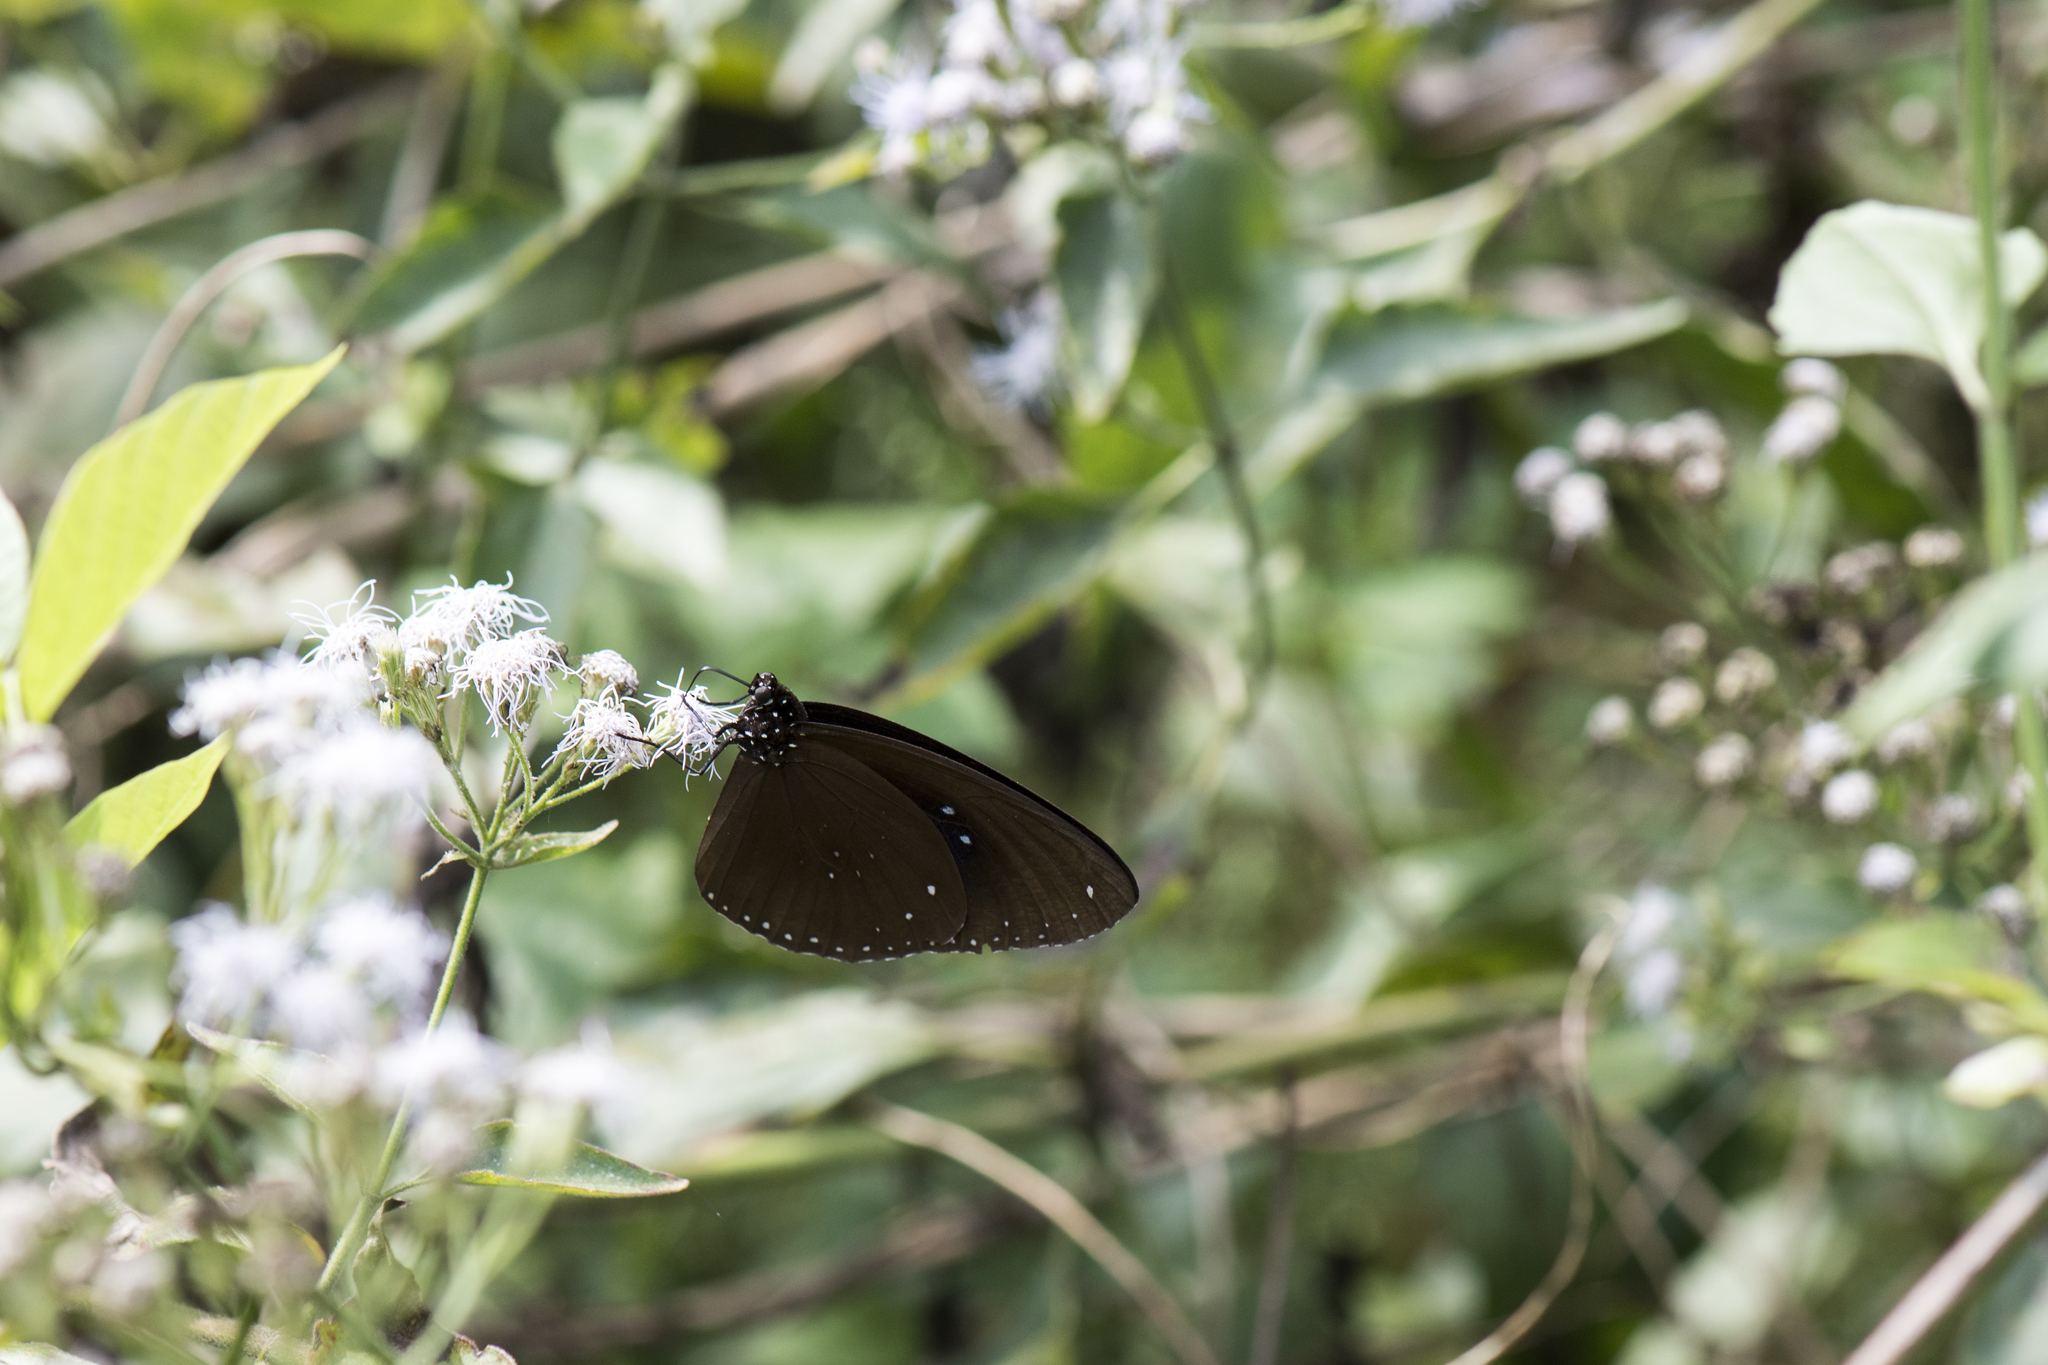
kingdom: Animalia
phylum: Arthropoda
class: Insecta
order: Lepidoptera
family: Nymphalidae
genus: Euploea
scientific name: Euploea sylvester
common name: Double-branded crow butterfly
